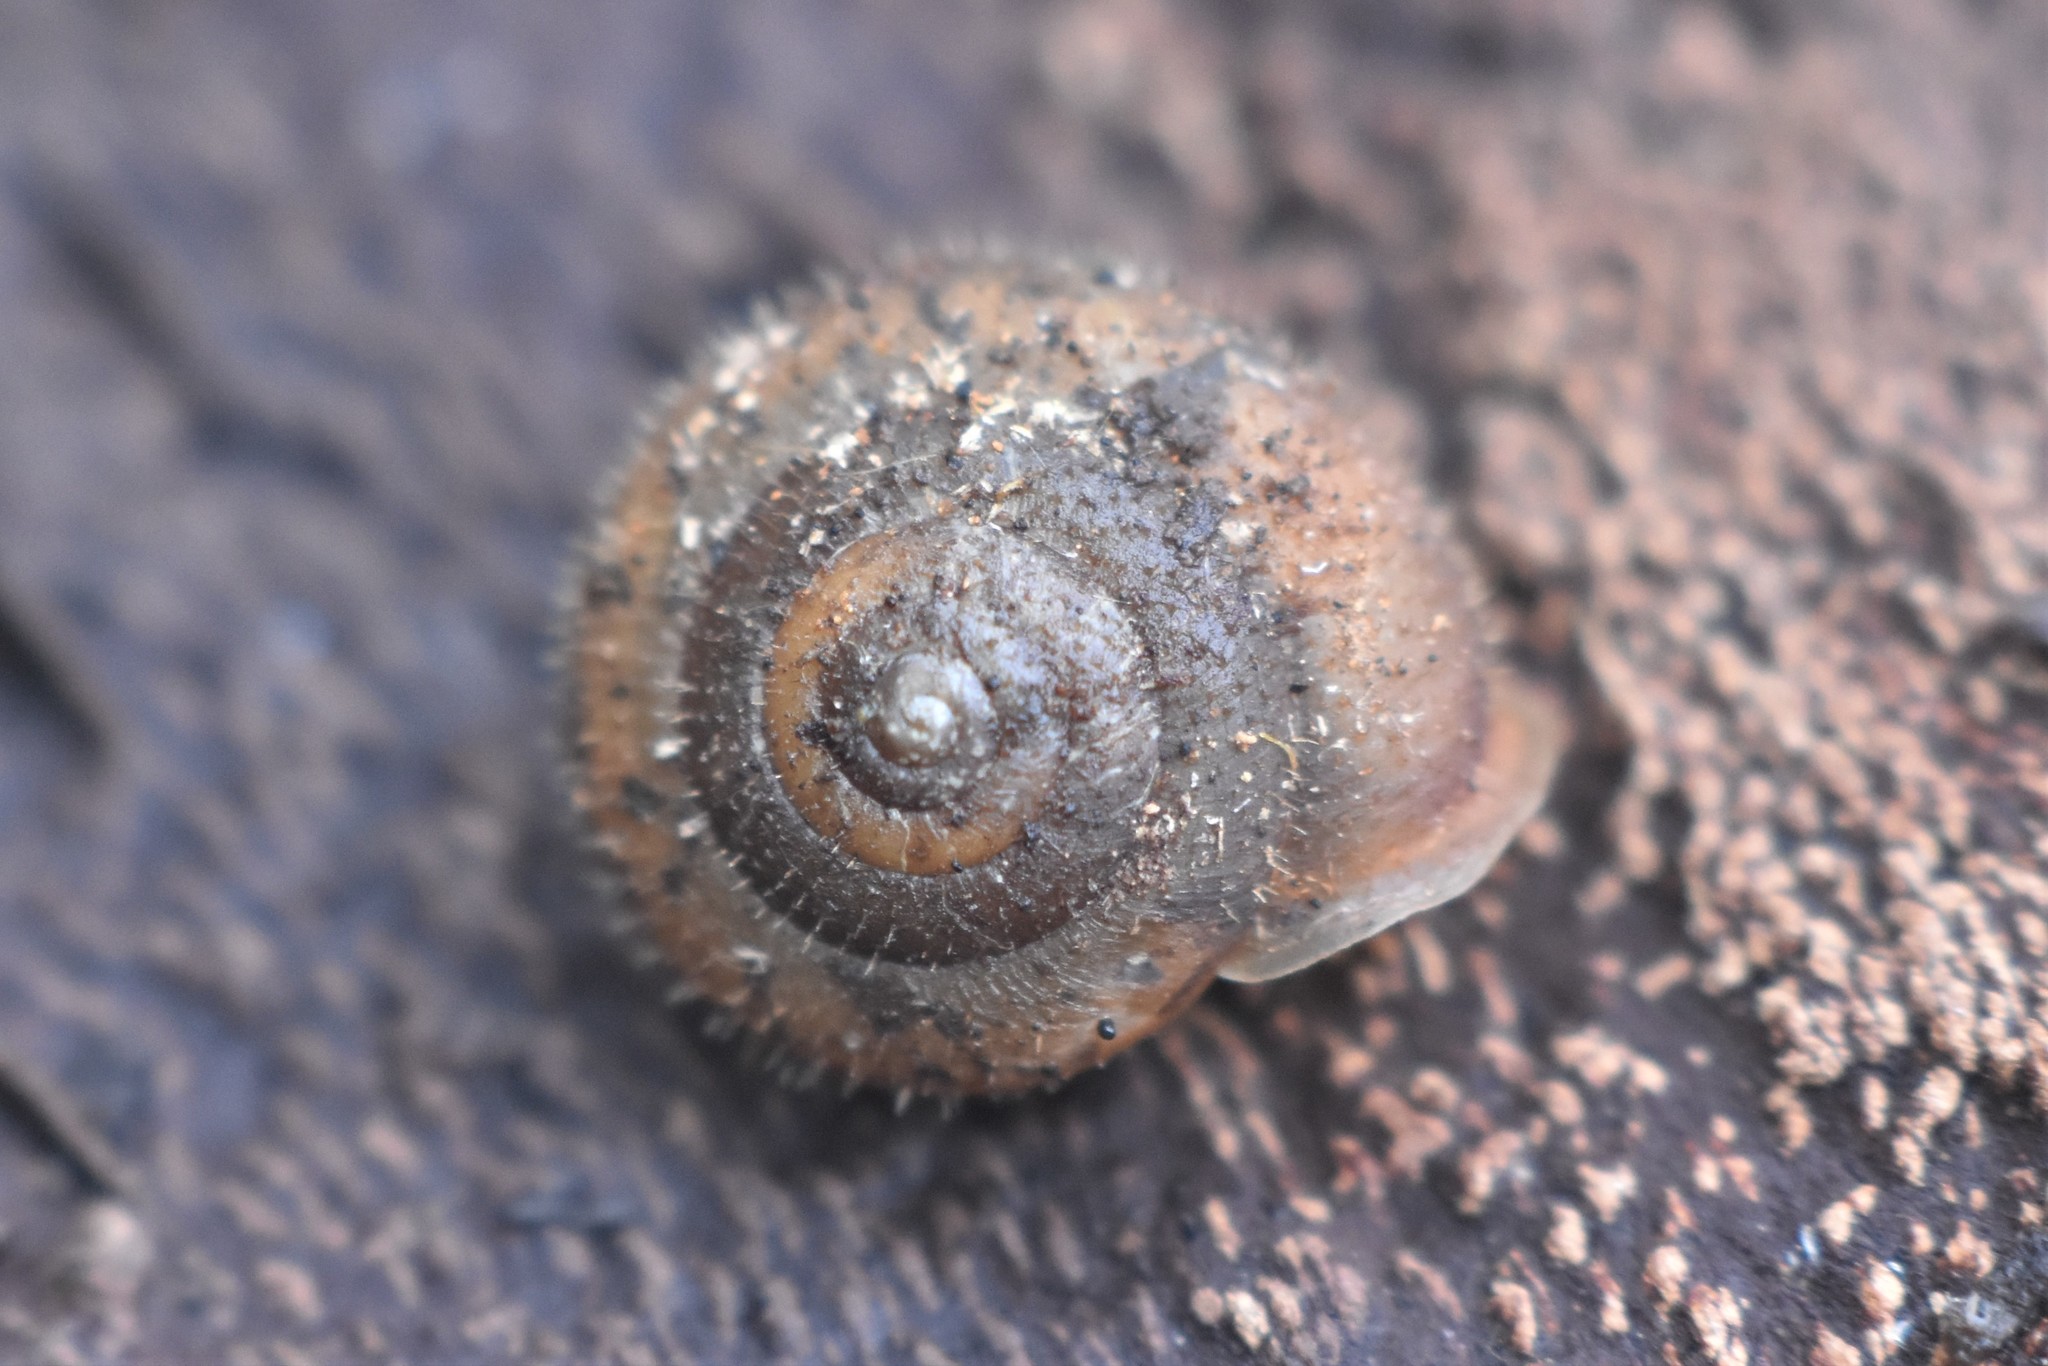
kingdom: Animalia
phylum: Mollusca
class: Gastropoda
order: Stylommatophora
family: Polygyridae
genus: Vespericola
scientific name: Vespericola columbianus
